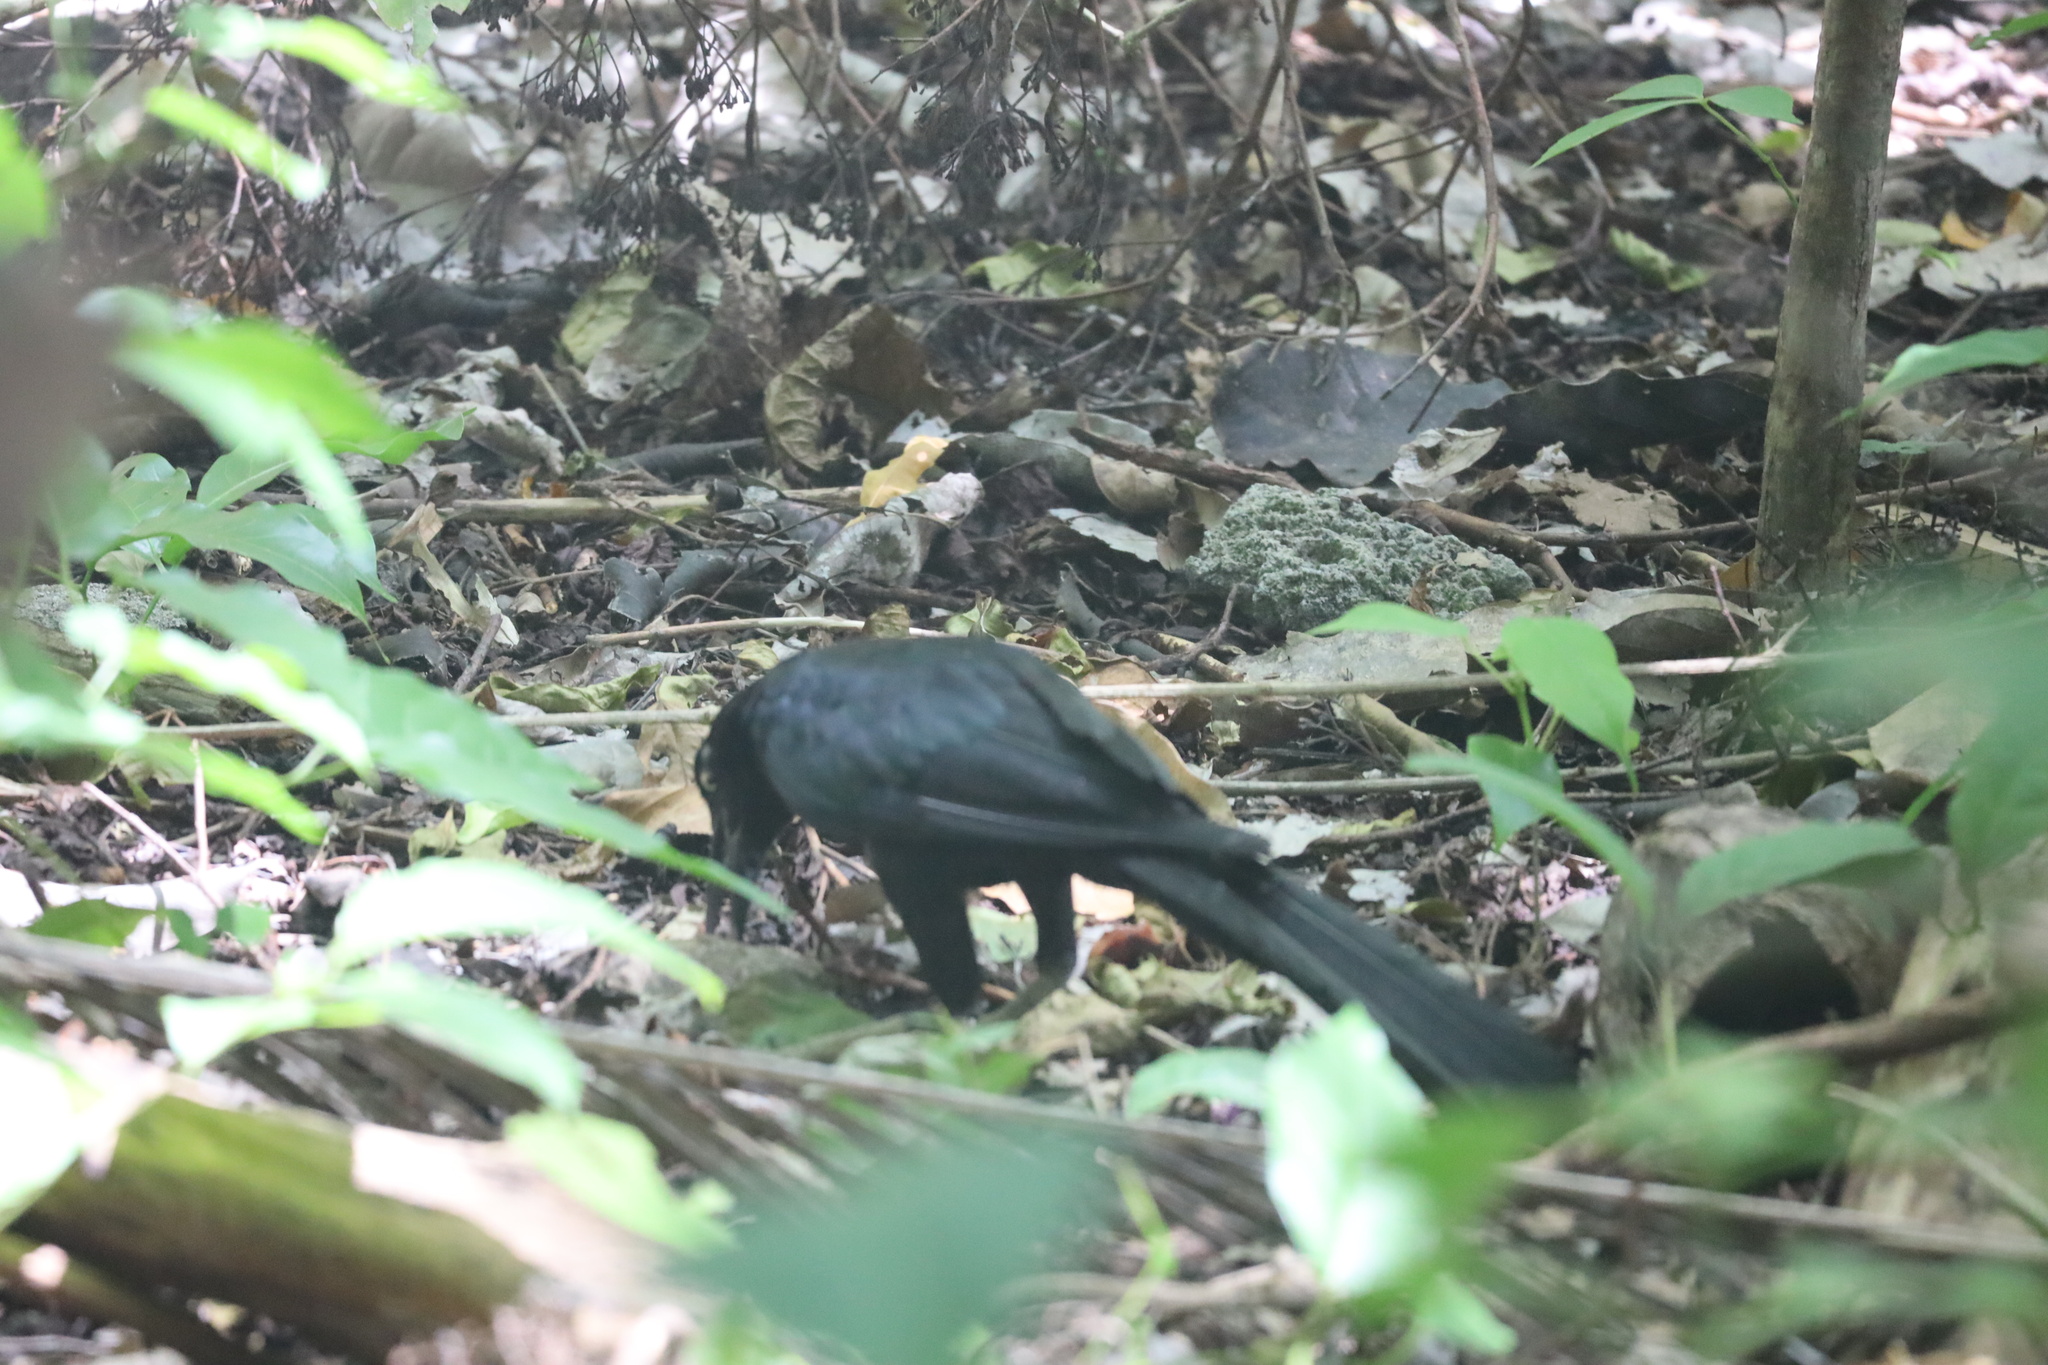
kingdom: Animalia
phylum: Chordata
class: Aves
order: Passeriformes
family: Icteridae
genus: Quiscalus
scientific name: Quiscalus mexicanus
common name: Great-tailed grackle
